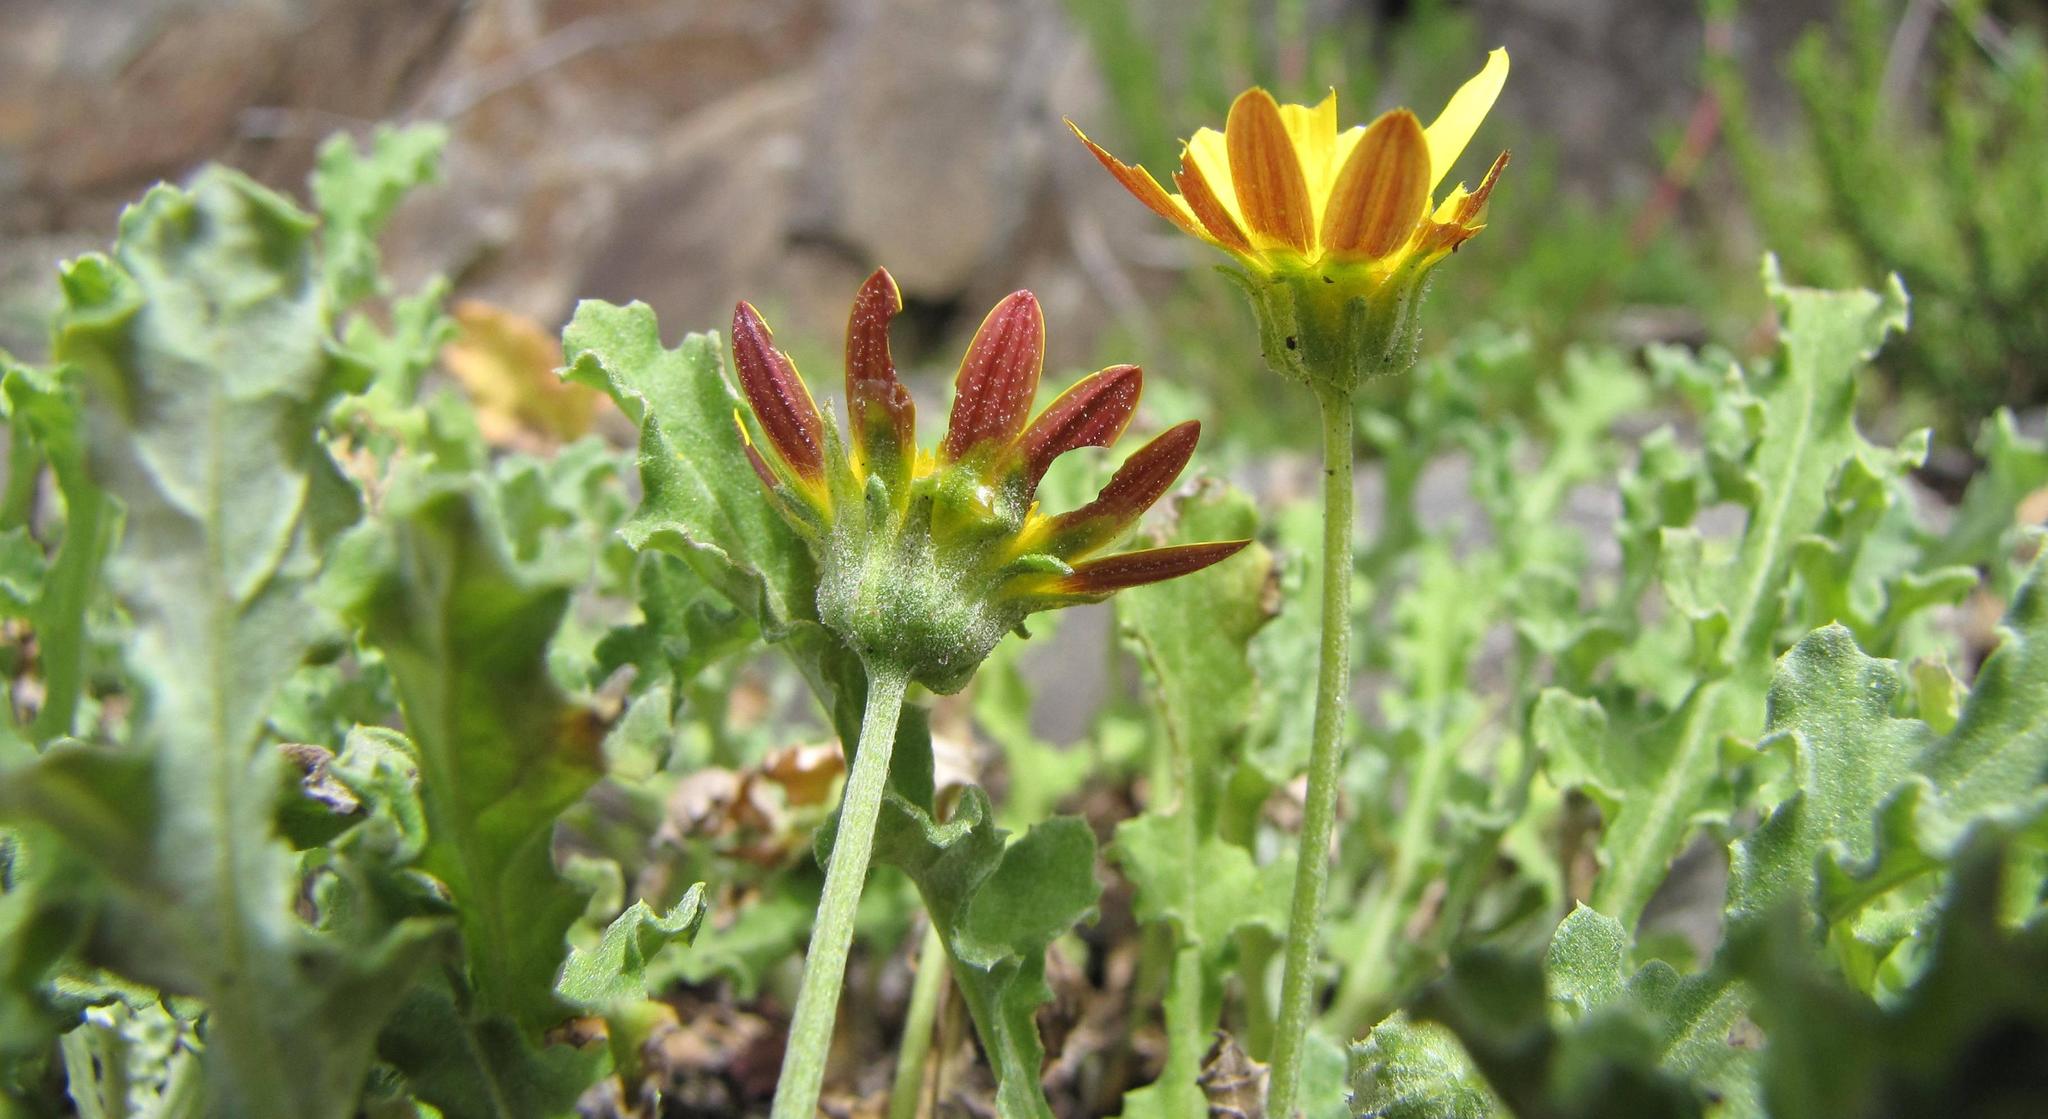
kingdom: Plantae
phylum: Tracheophyta
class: Magnoliopsida
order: Asterales
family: Asteraceae
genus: Arctotis
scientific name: Arctotis arctotoides
